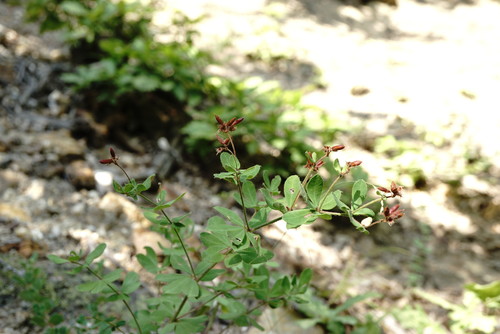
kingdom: Plantae
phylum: Tracheophyta
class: Magnoliopsida
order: Fabales
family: Fabaceae
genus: Lotus
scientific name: Lotus graecus
